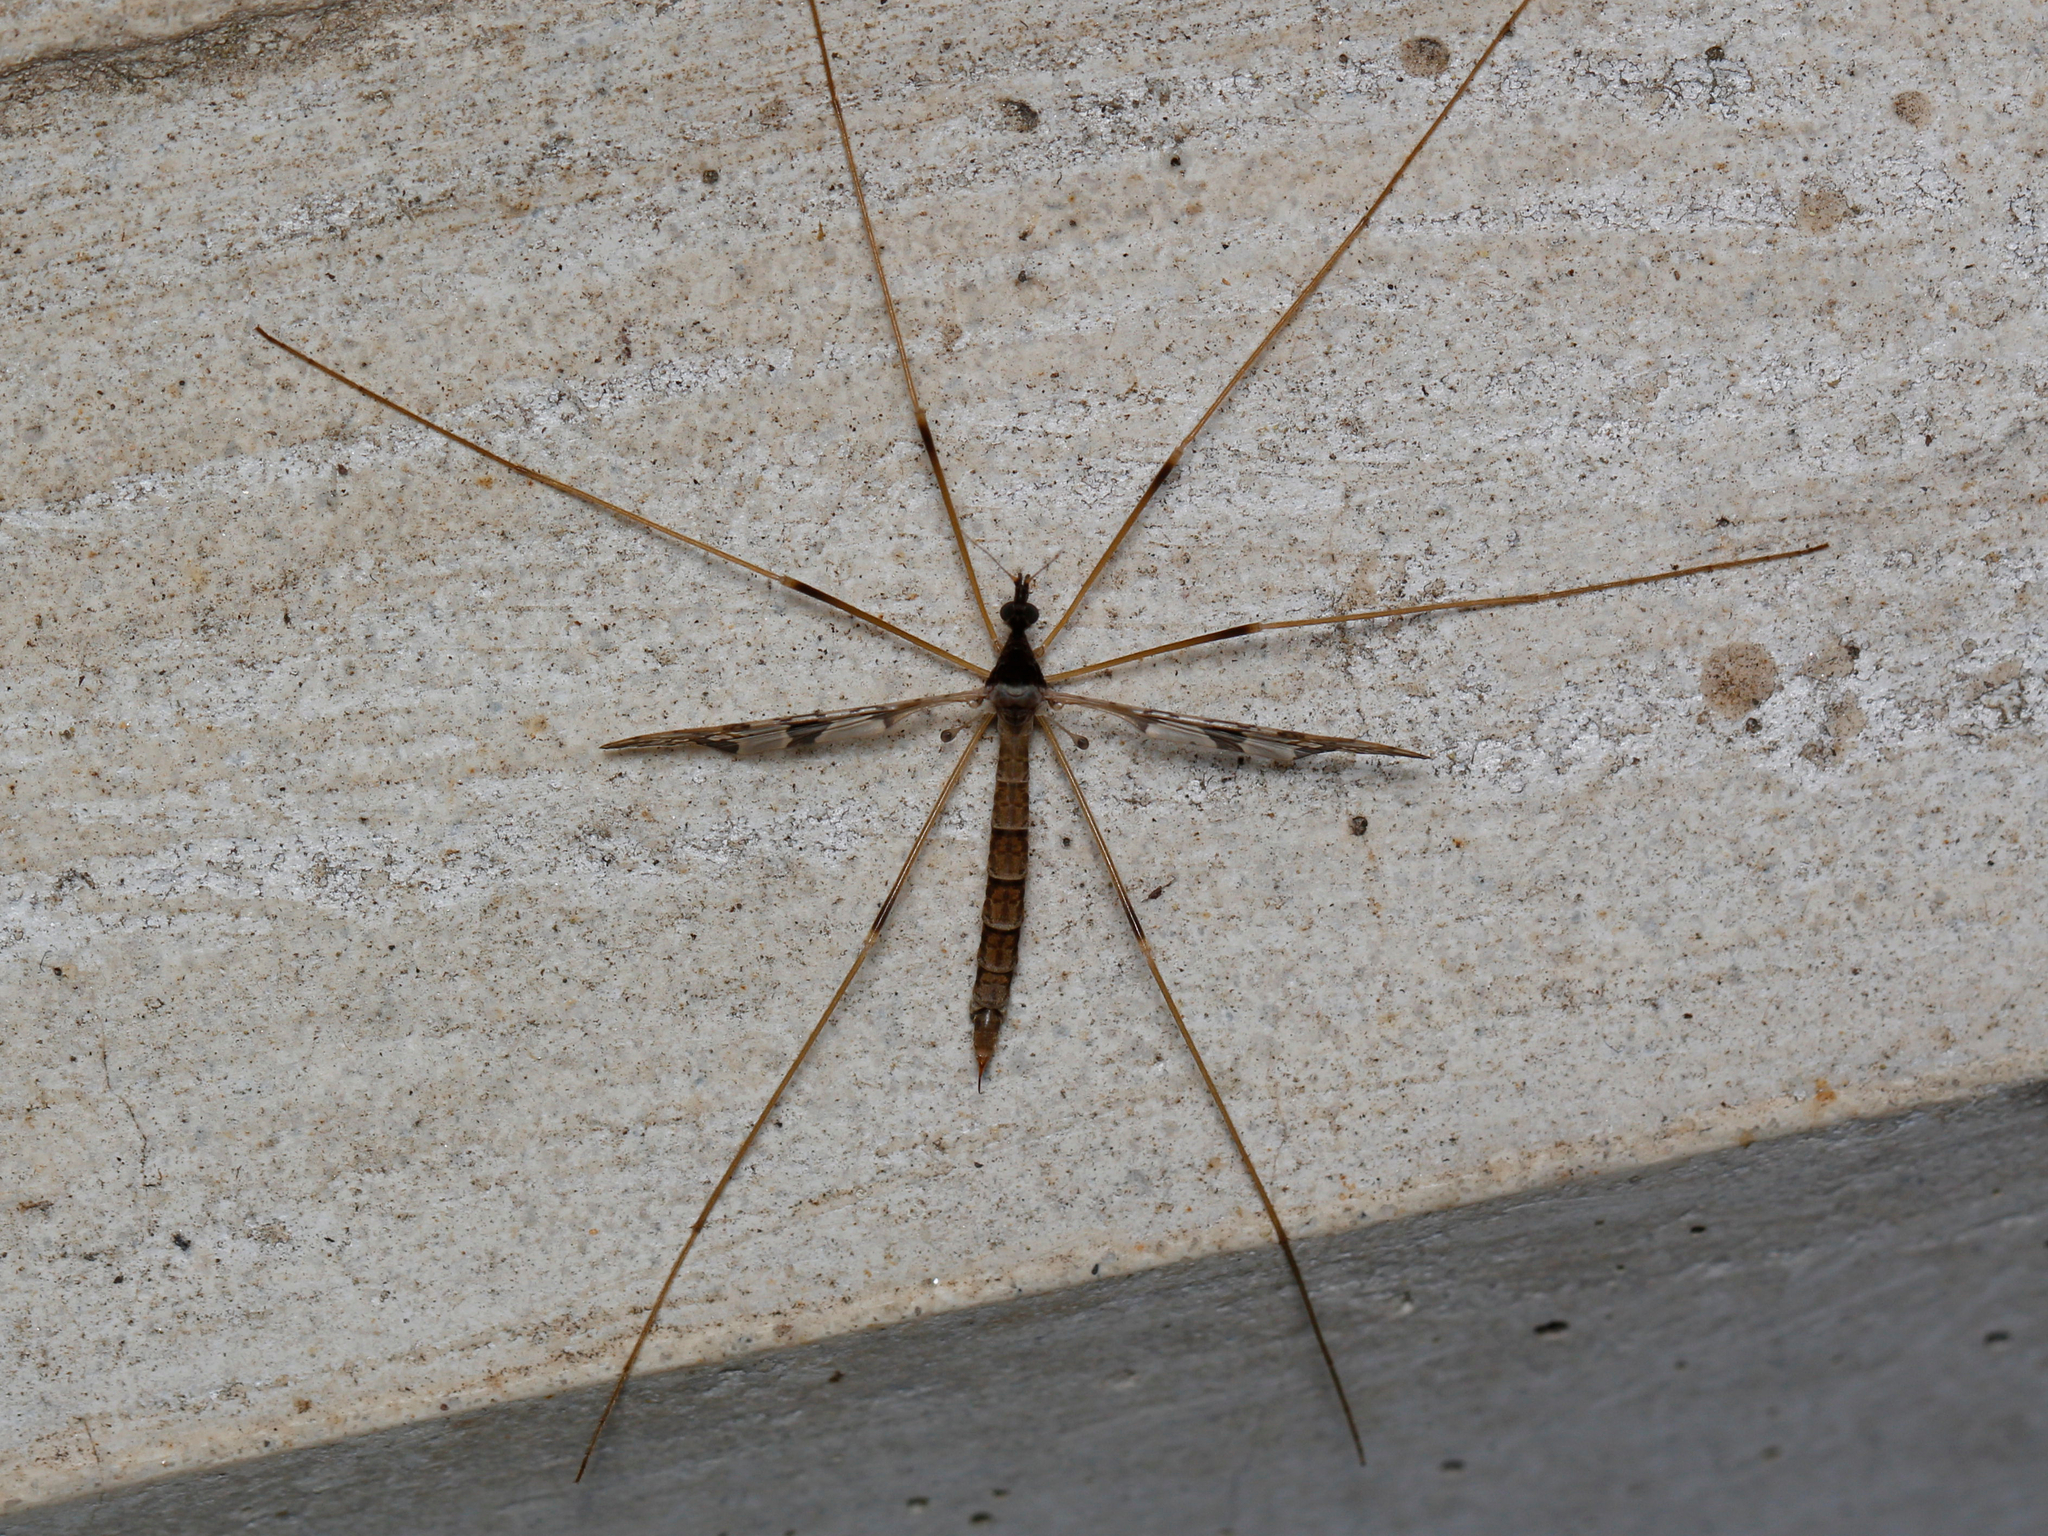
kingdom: Animalia
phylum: Arthropoda
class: Insecta
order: Diptera
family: Limoniidae
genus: Epiphragma
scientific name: Epiphragma solatrix
